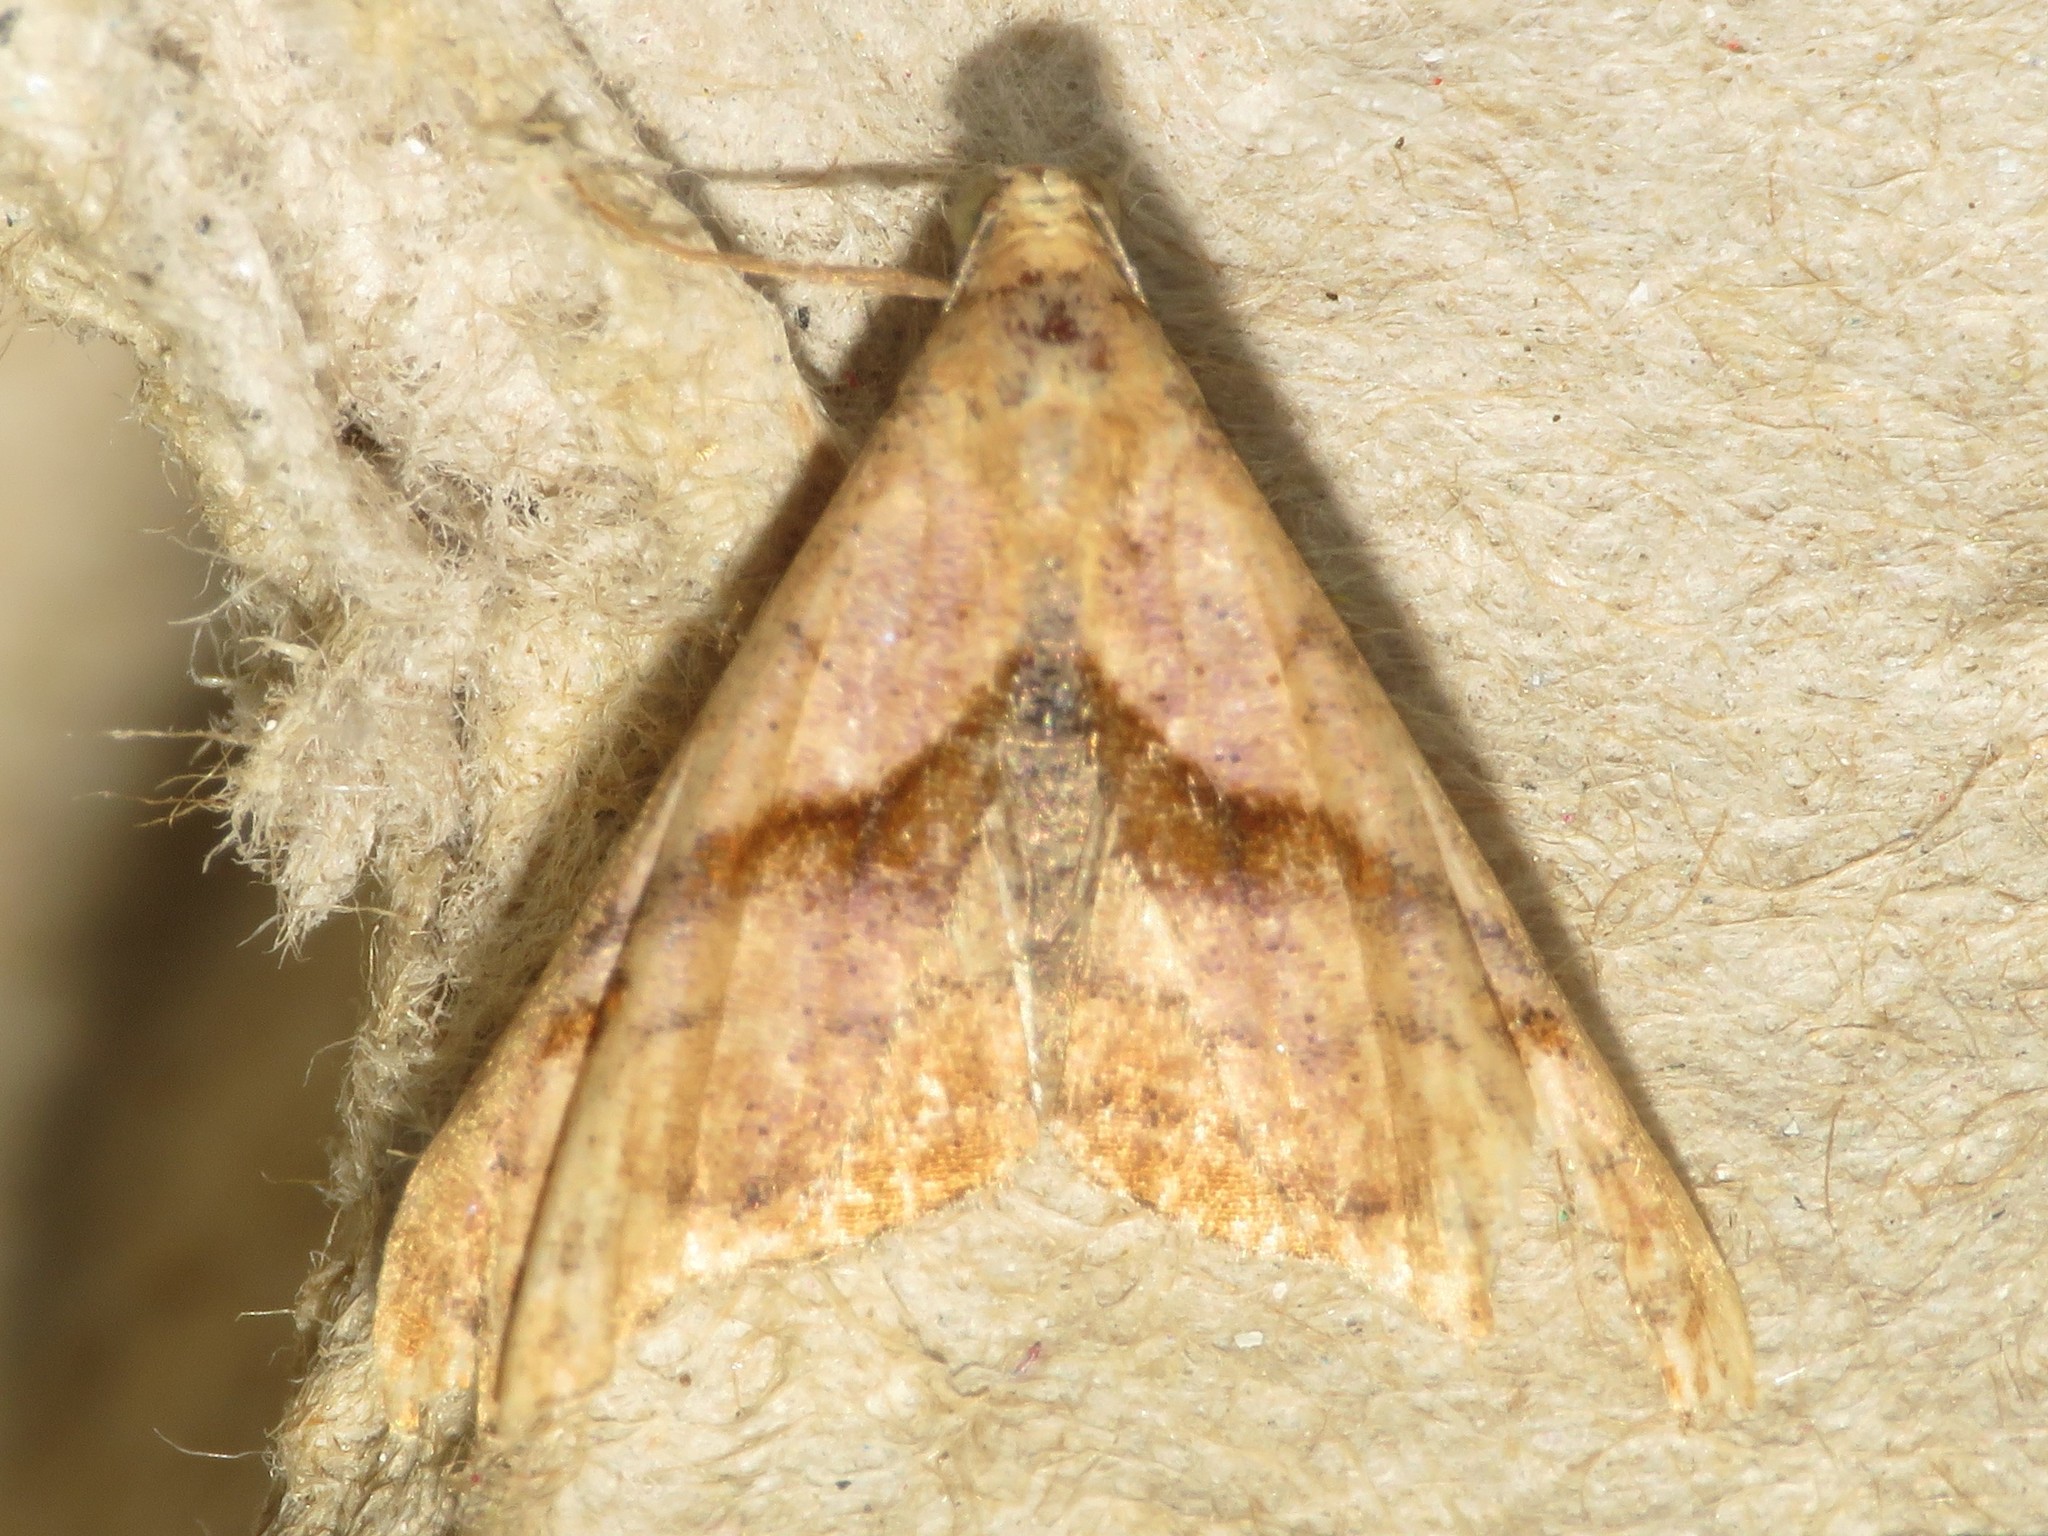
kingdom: Animalia
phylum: Arthropoda
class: Insecta
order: Lepidoptera
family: Erebidae
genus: Palthis
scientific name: Palthis angulalis
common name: Dark-spotted palthis moth
